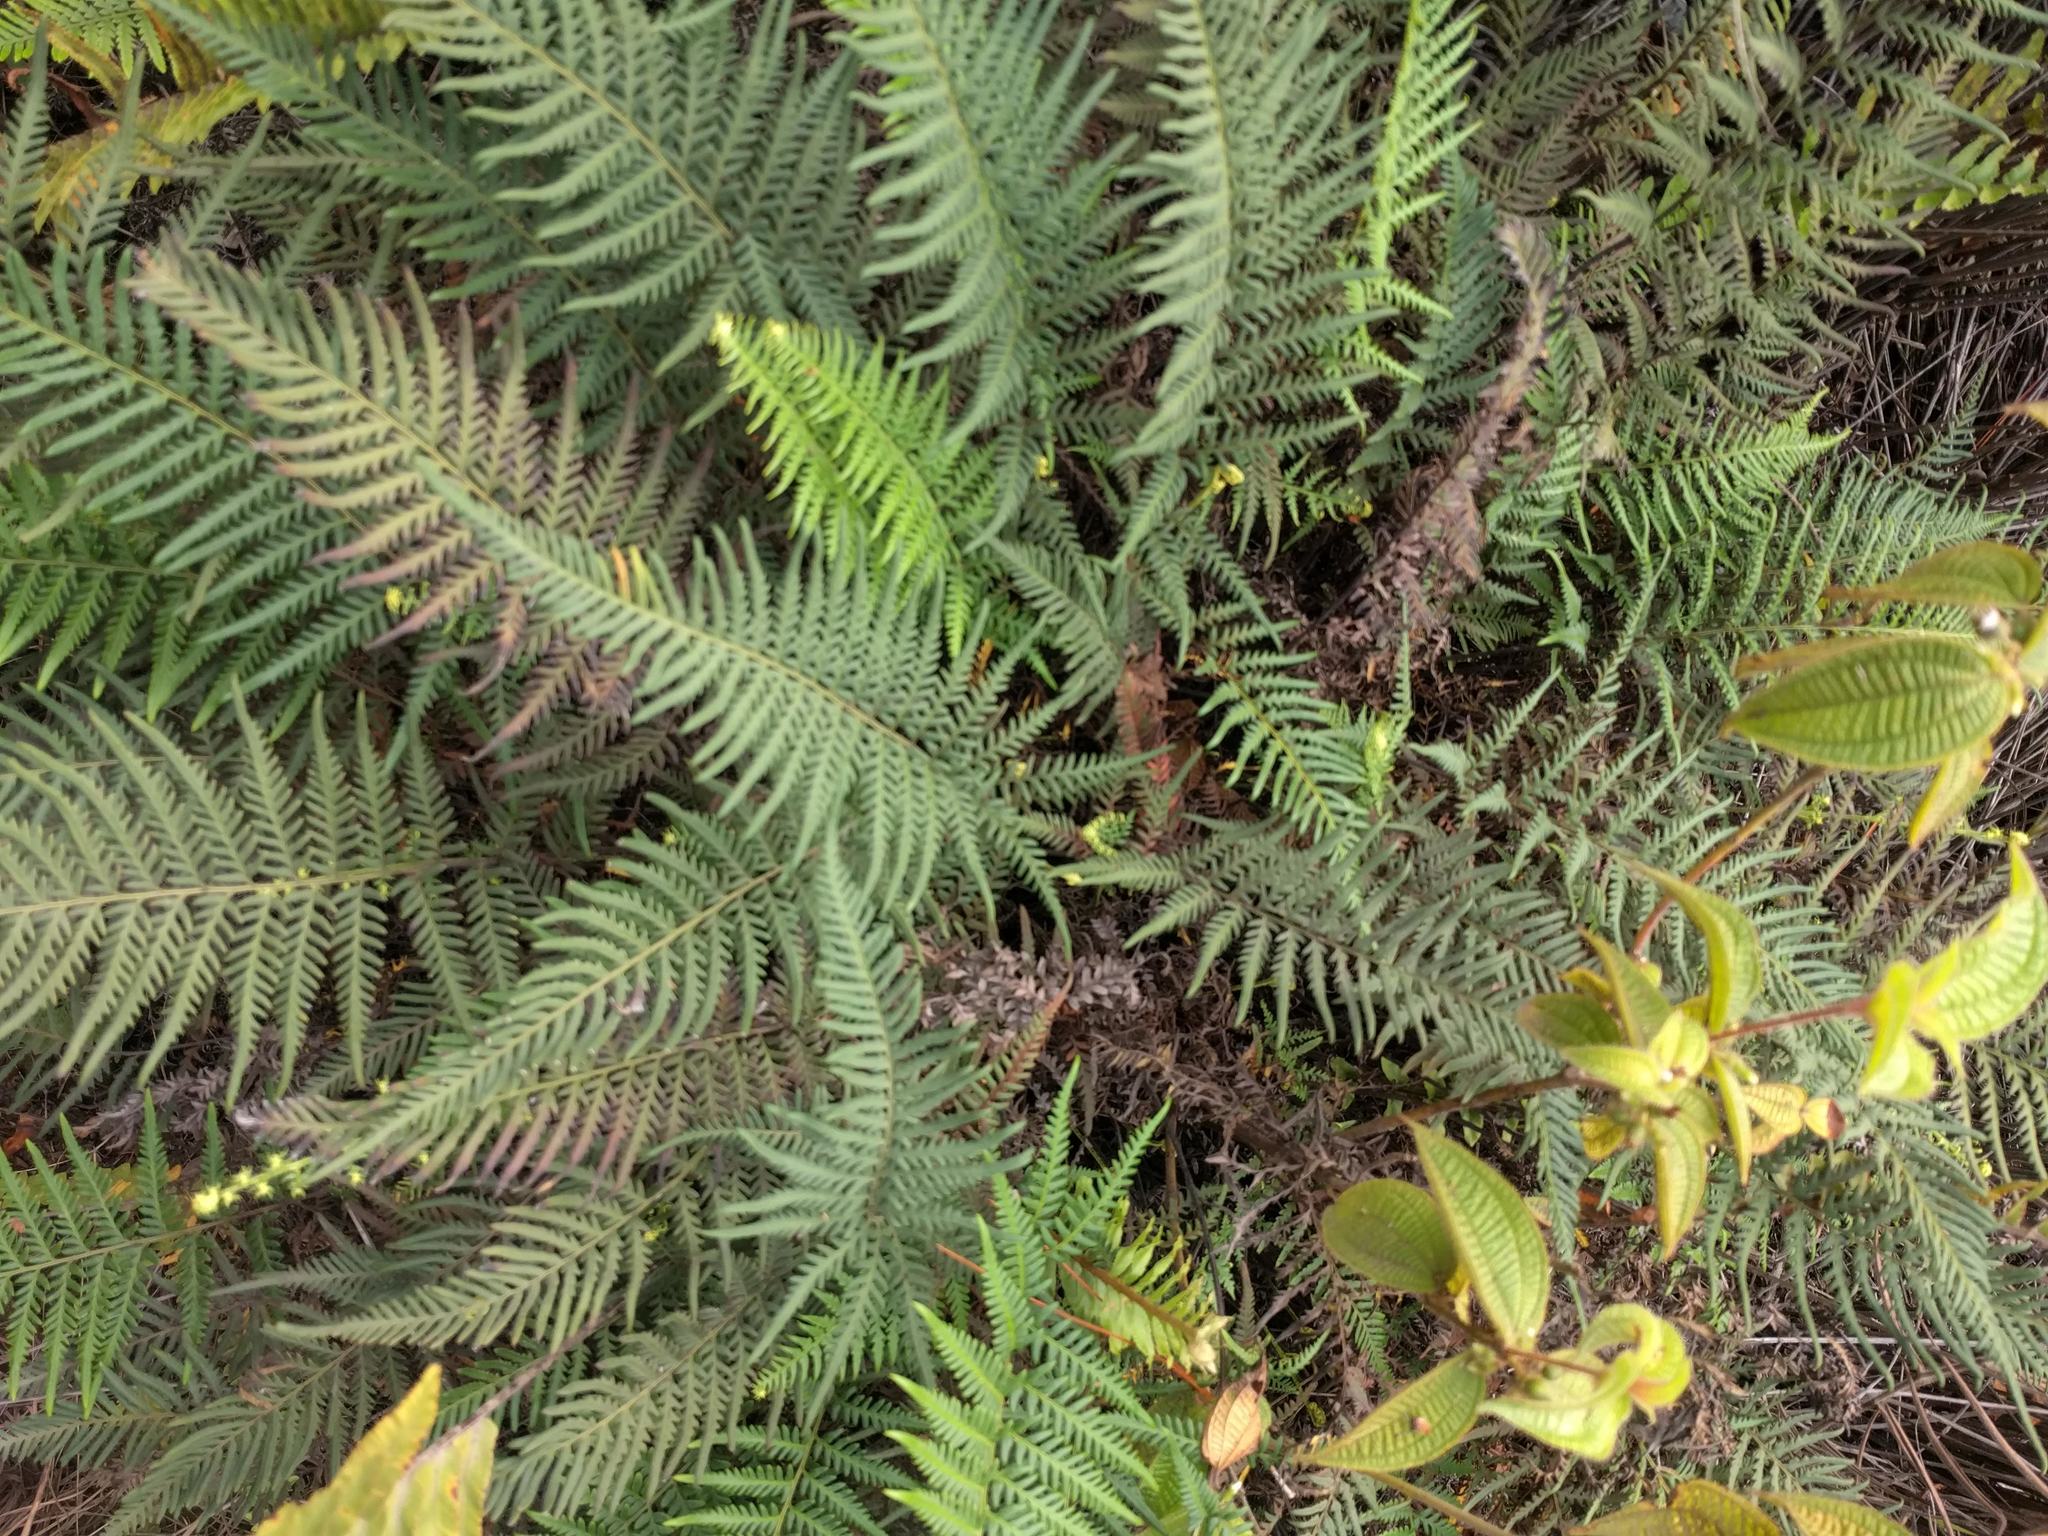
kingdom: Plantae
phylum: Tracheophyta
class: Polypodiopsida
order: Polypodiales
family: Pteridaceae
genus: Pityrogramma
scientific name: Pityrogramma austroamericana
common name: Leatherleaf goldback fern
